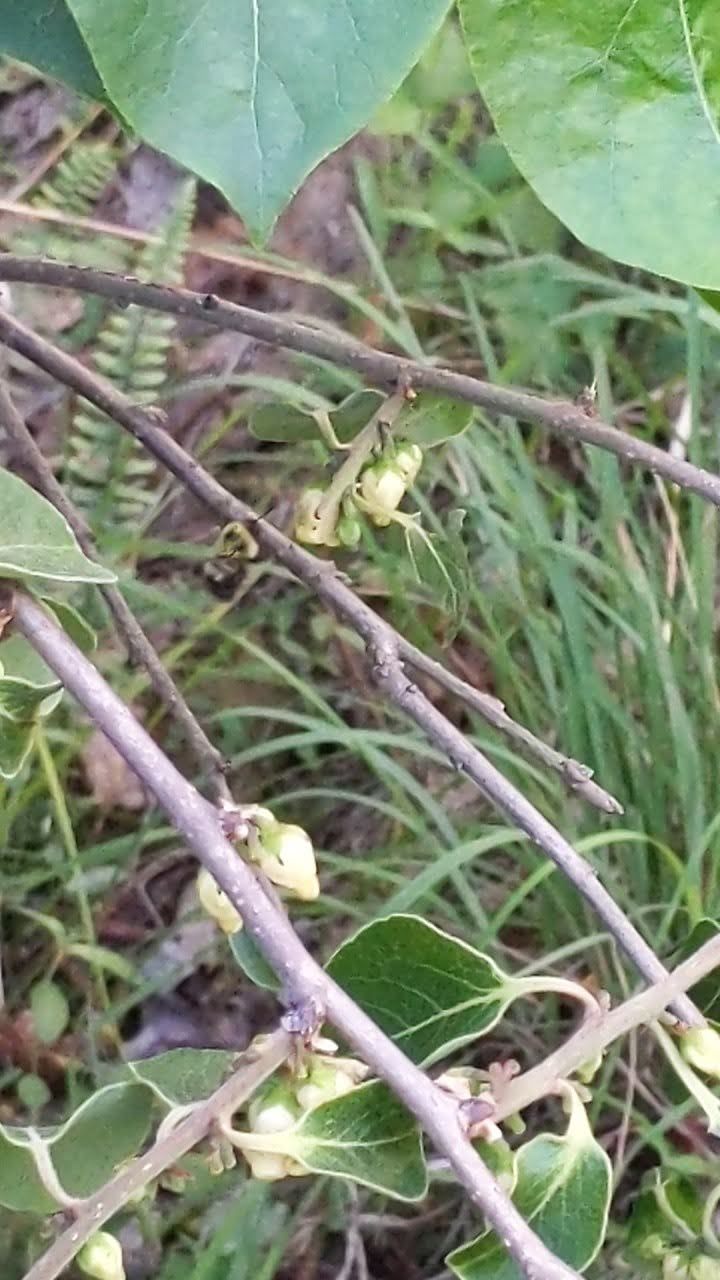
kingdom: Animalia
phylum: Arthropoda
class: Insecta
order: Hymenoptera
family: Apidae
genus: Bombus
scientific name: Bombus bimaculatus
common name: Two-spotted bumble bee
